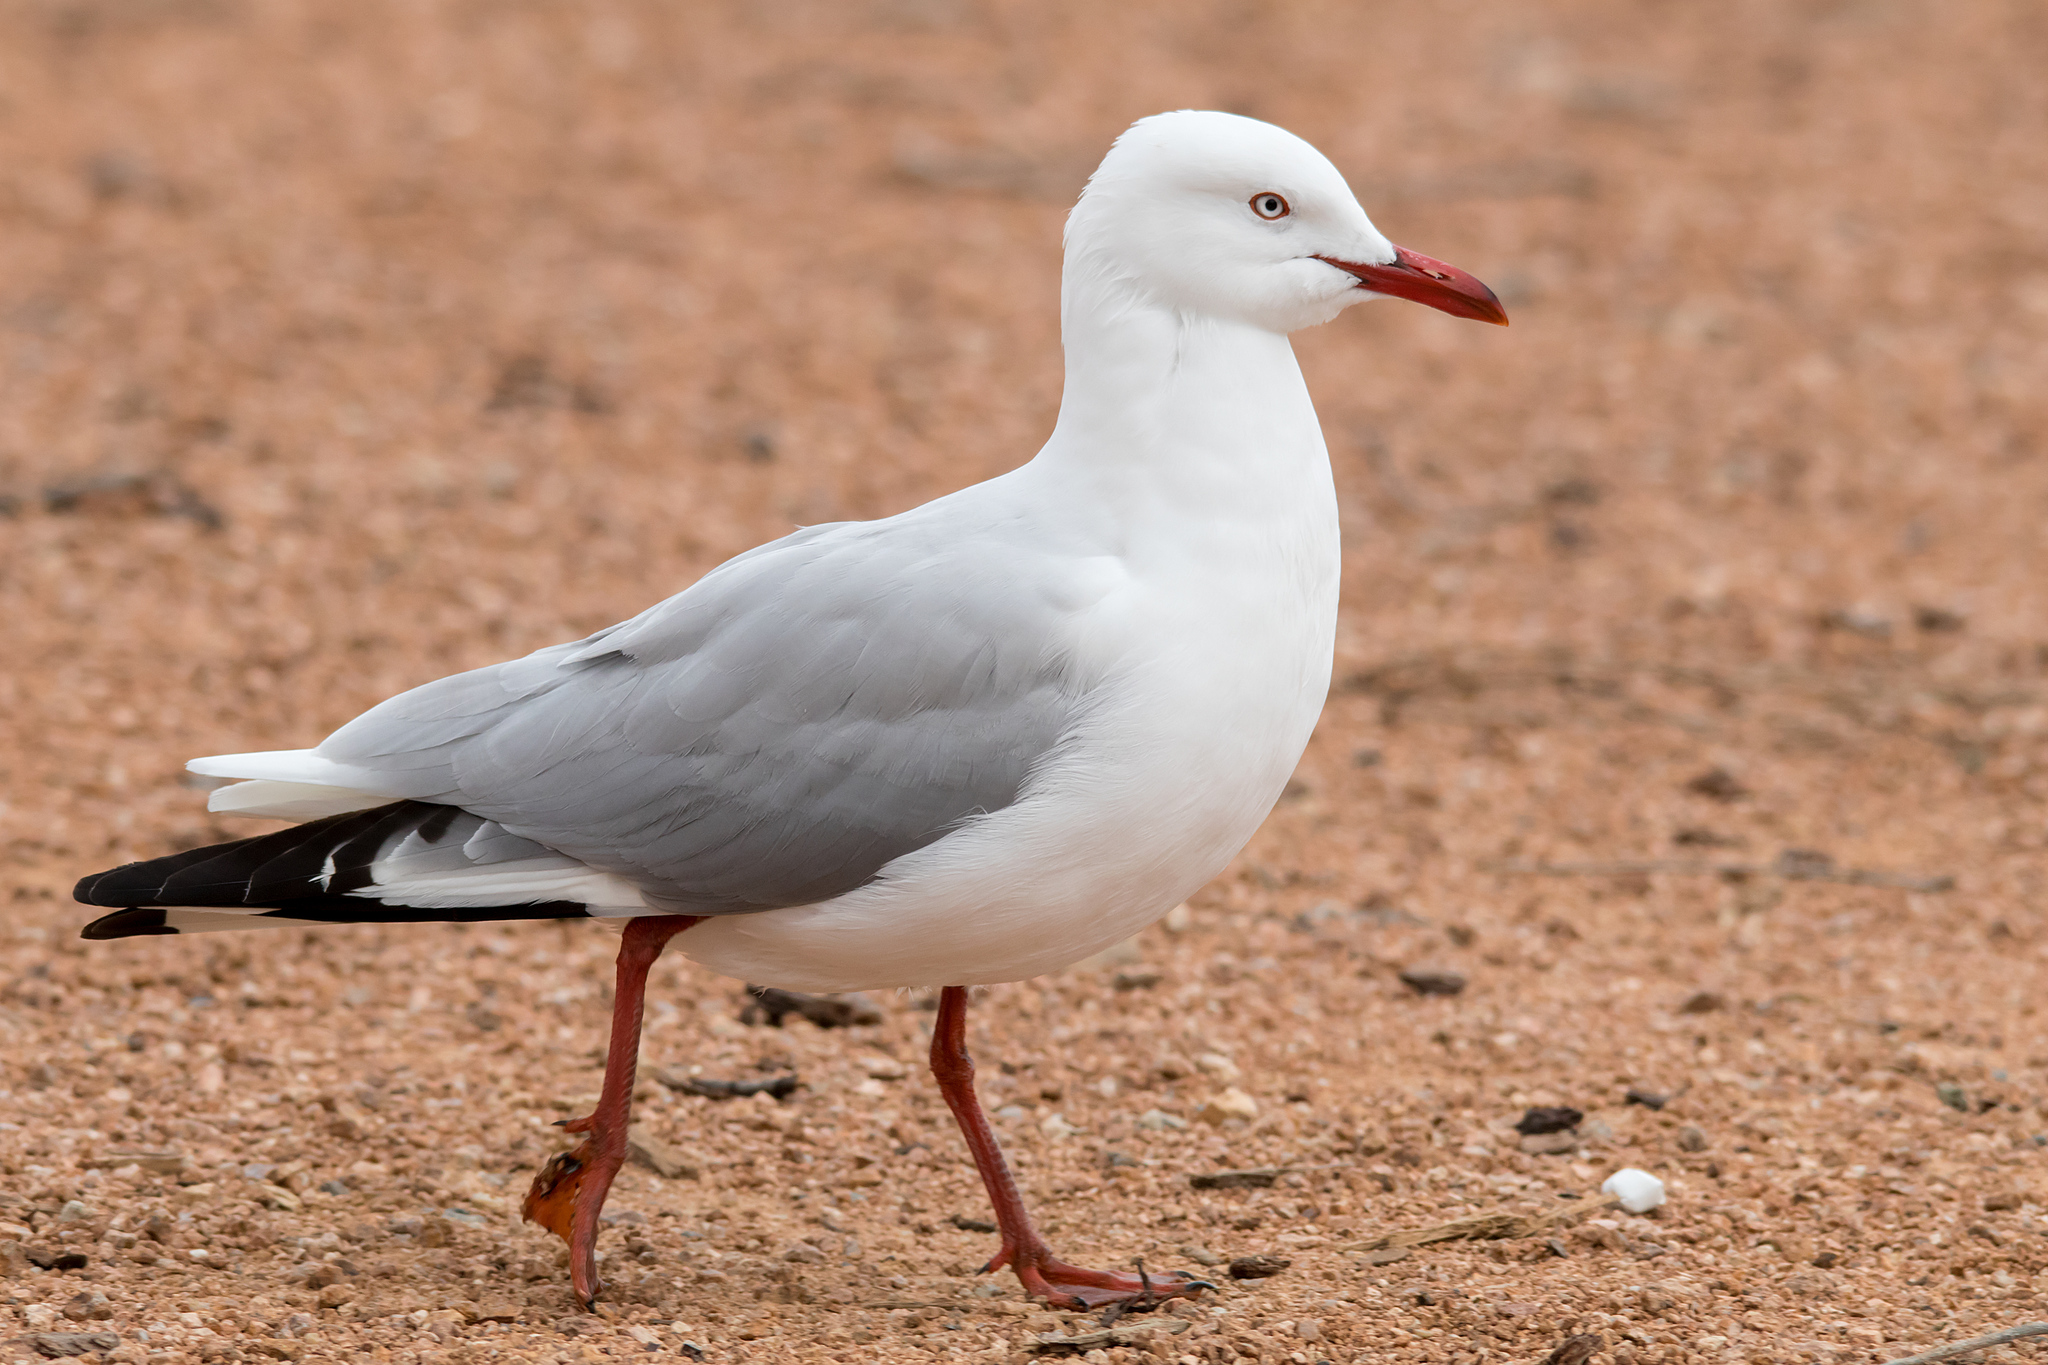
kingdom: Animalia
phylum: Chordata
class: Aves
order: Charadriiformes
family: Laridae
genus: Chroicocephalus
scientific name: Chroicocephalus novaehollandiae
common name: Silver gull
